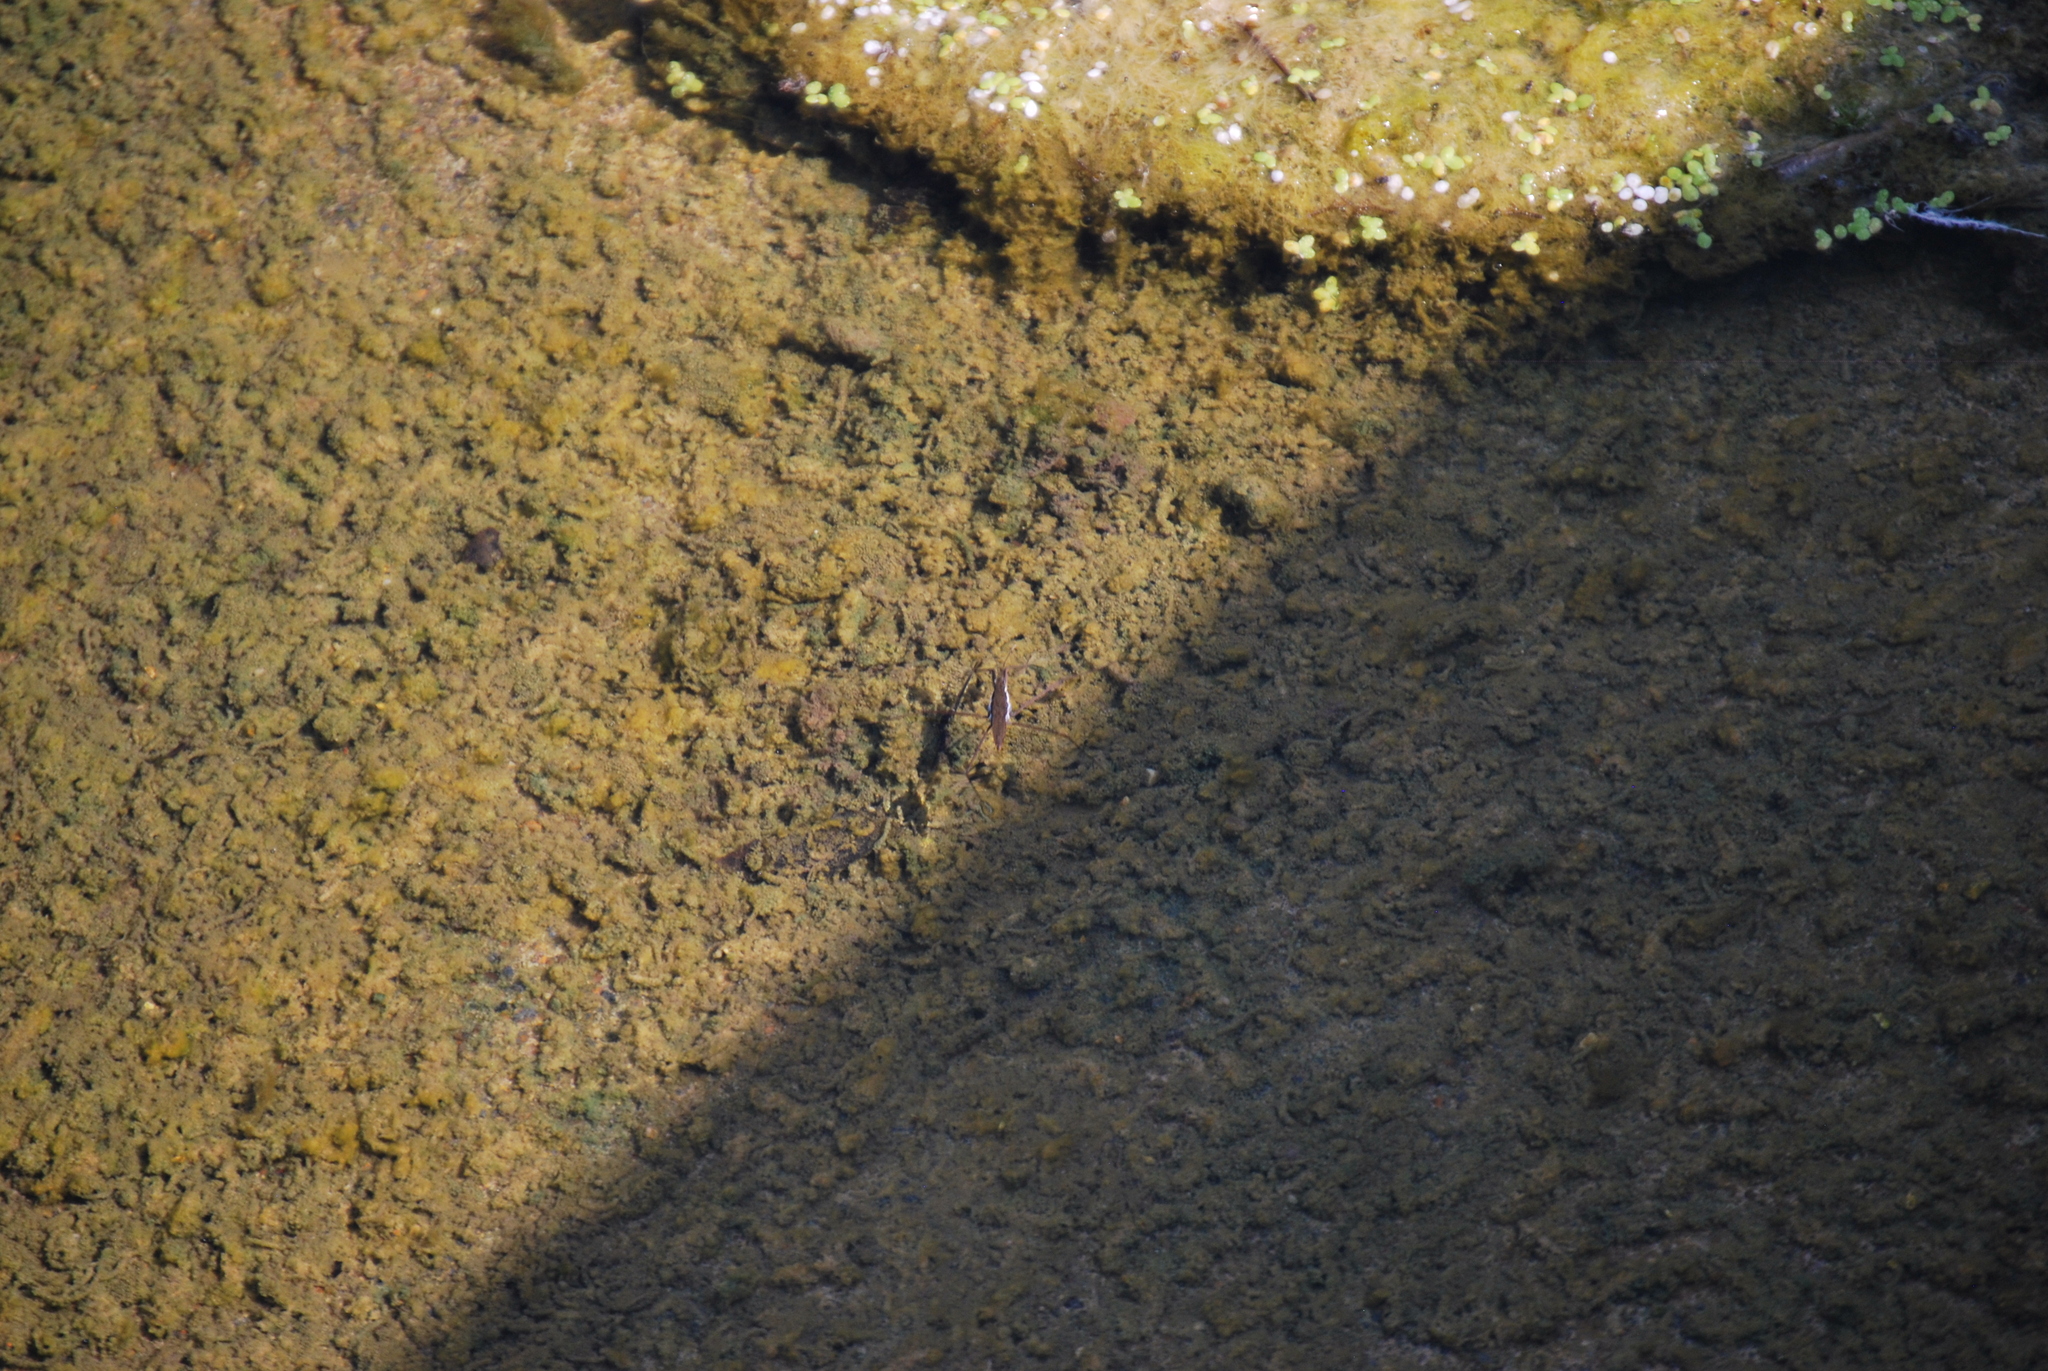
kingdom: Animalia
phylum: Arthropoda
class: Insecta
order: Hemiptera
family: Gerridae
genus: Aquarius
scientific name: Aquarius remigis
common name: Common water strider
